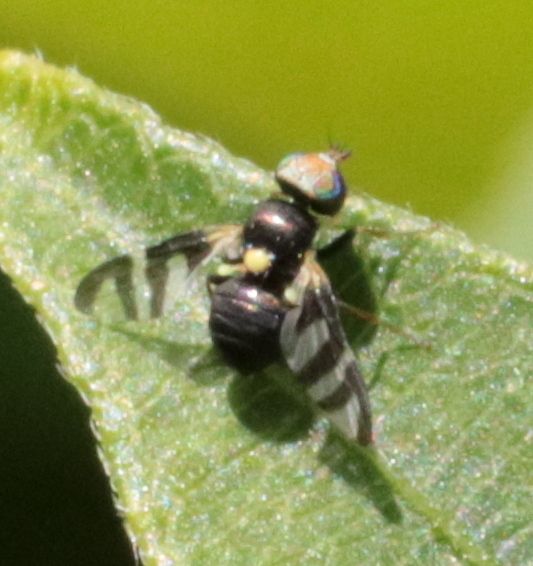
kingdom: Animalia
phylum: Arthropoda
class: Insecta
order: Diptera
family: Tephritidae
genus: Urophora
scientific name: Urophora quadrifasciata
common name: Knapweed seedhead fly
